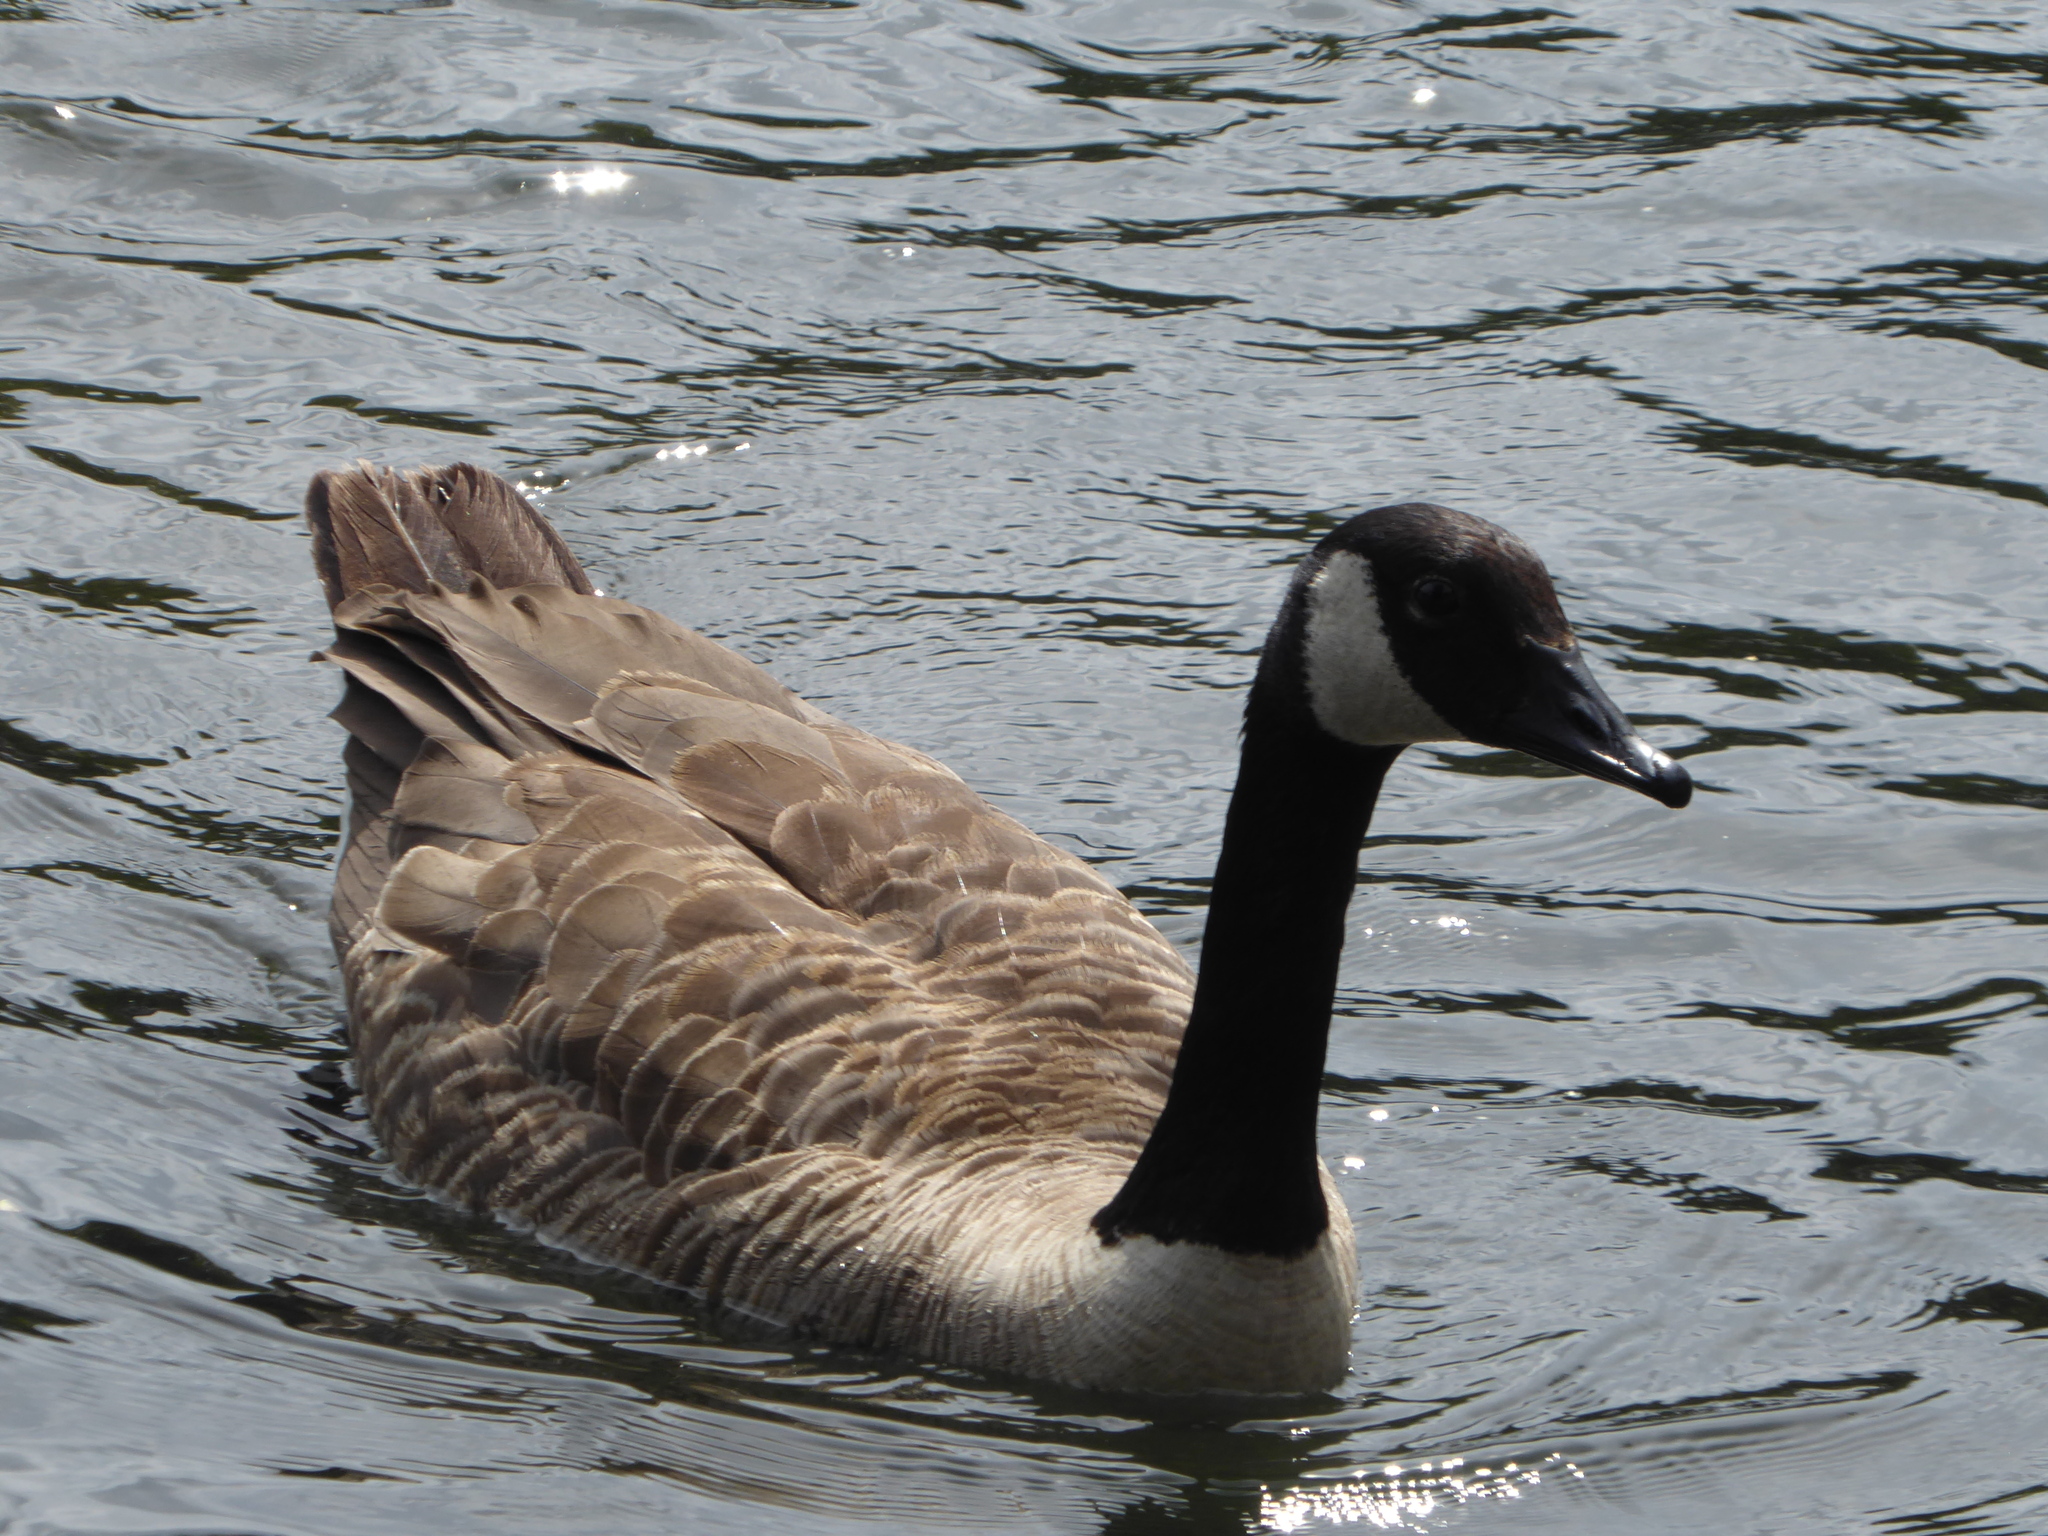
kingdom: Animalia
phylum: Chordata
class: Aves
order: Anseriformes
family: Anatidae
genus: Branta
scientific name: Branta canadensis
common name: Canada goose
